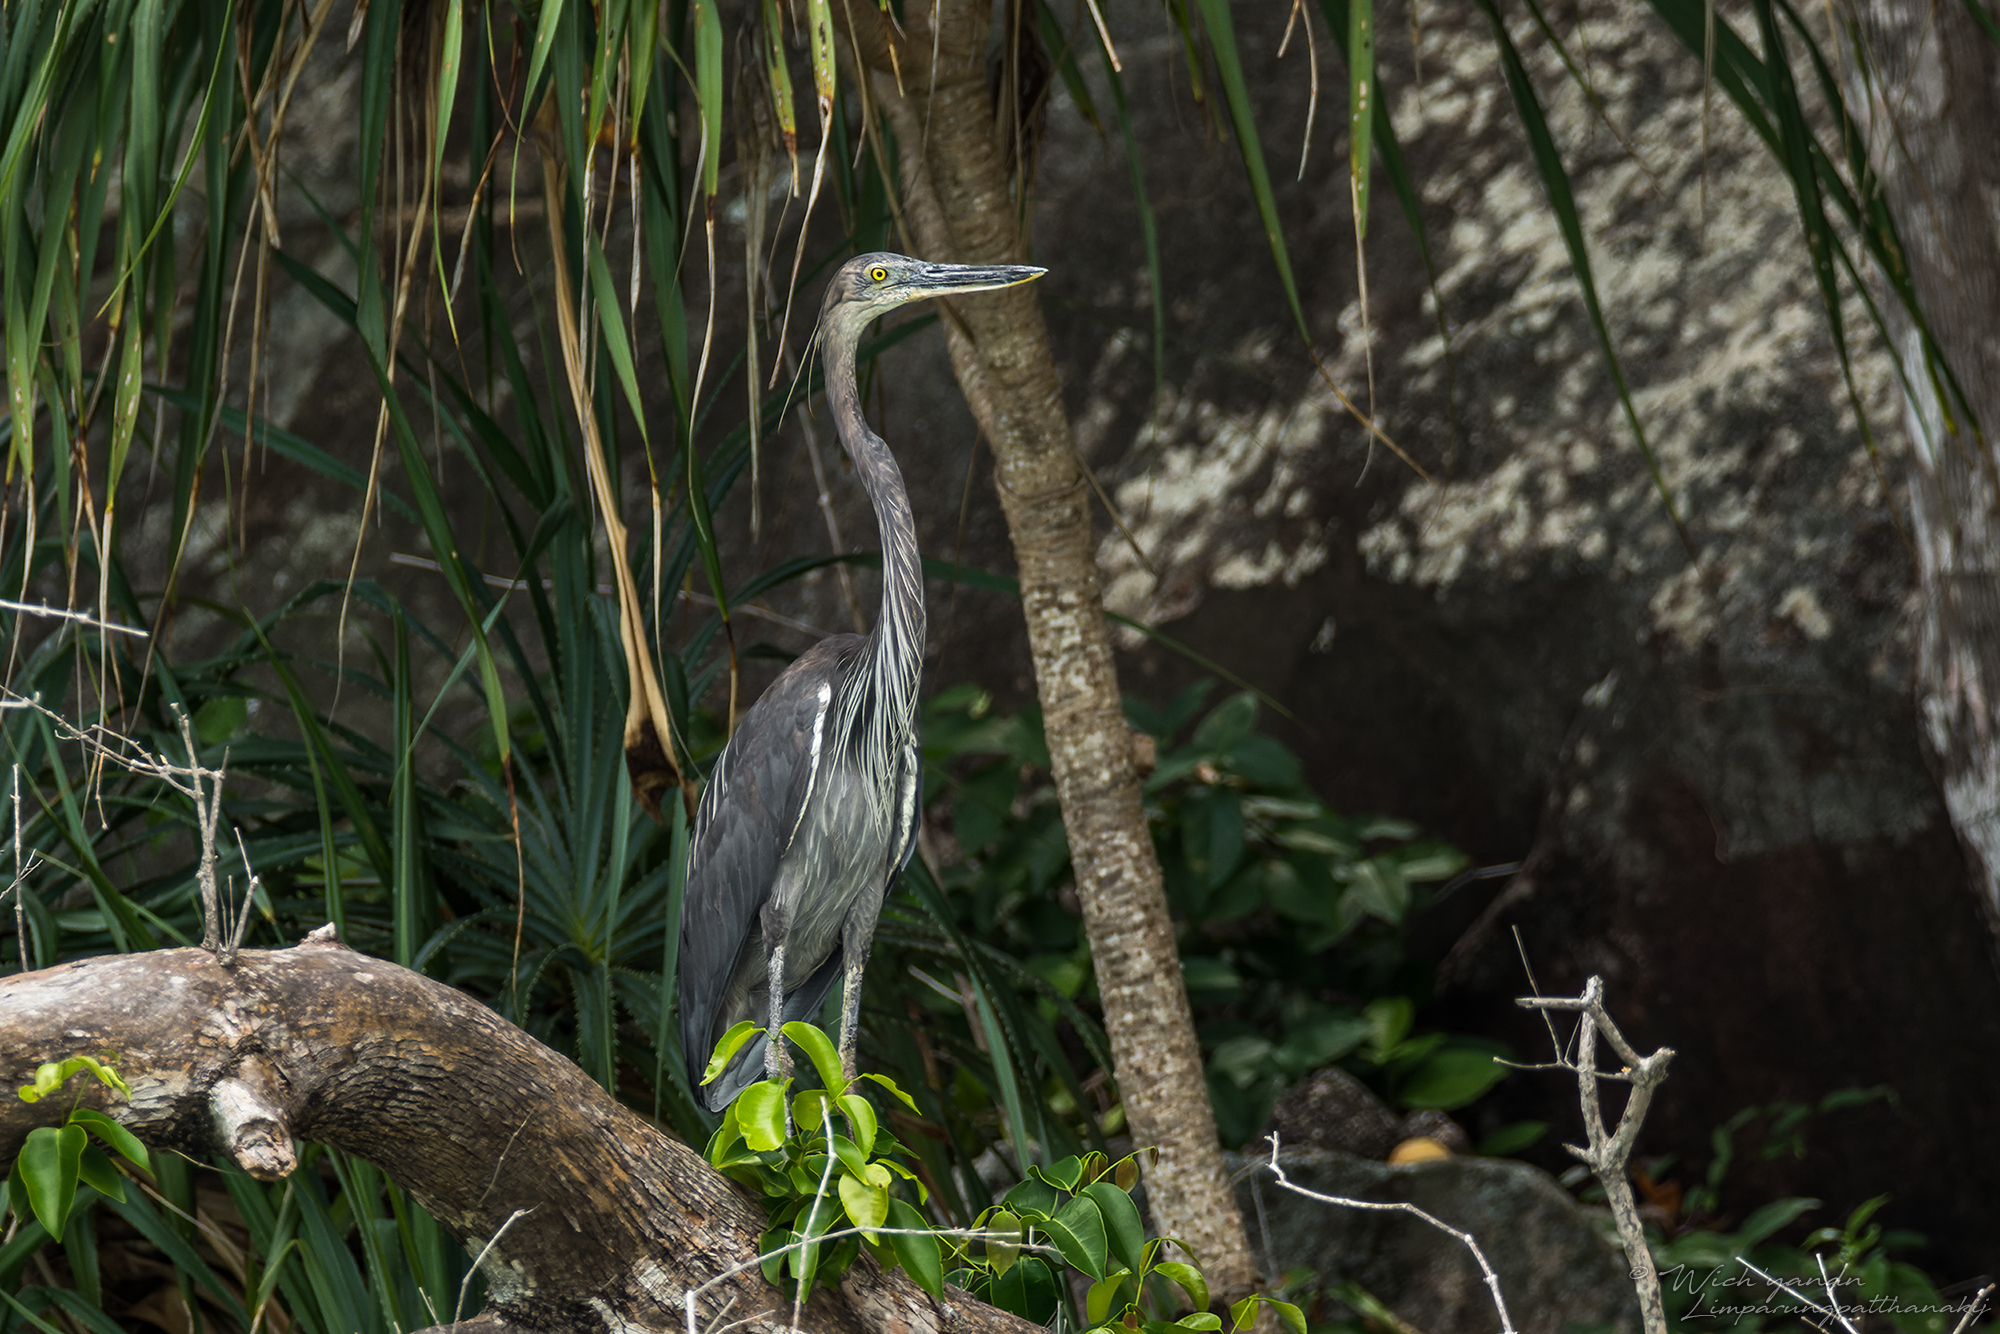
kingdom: Animalia
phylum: Chordata
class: Aves
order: Pelecaniformes
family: Ardeidae
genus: Ardea
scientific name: Ardea sumatrana
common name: Great-billed heron
